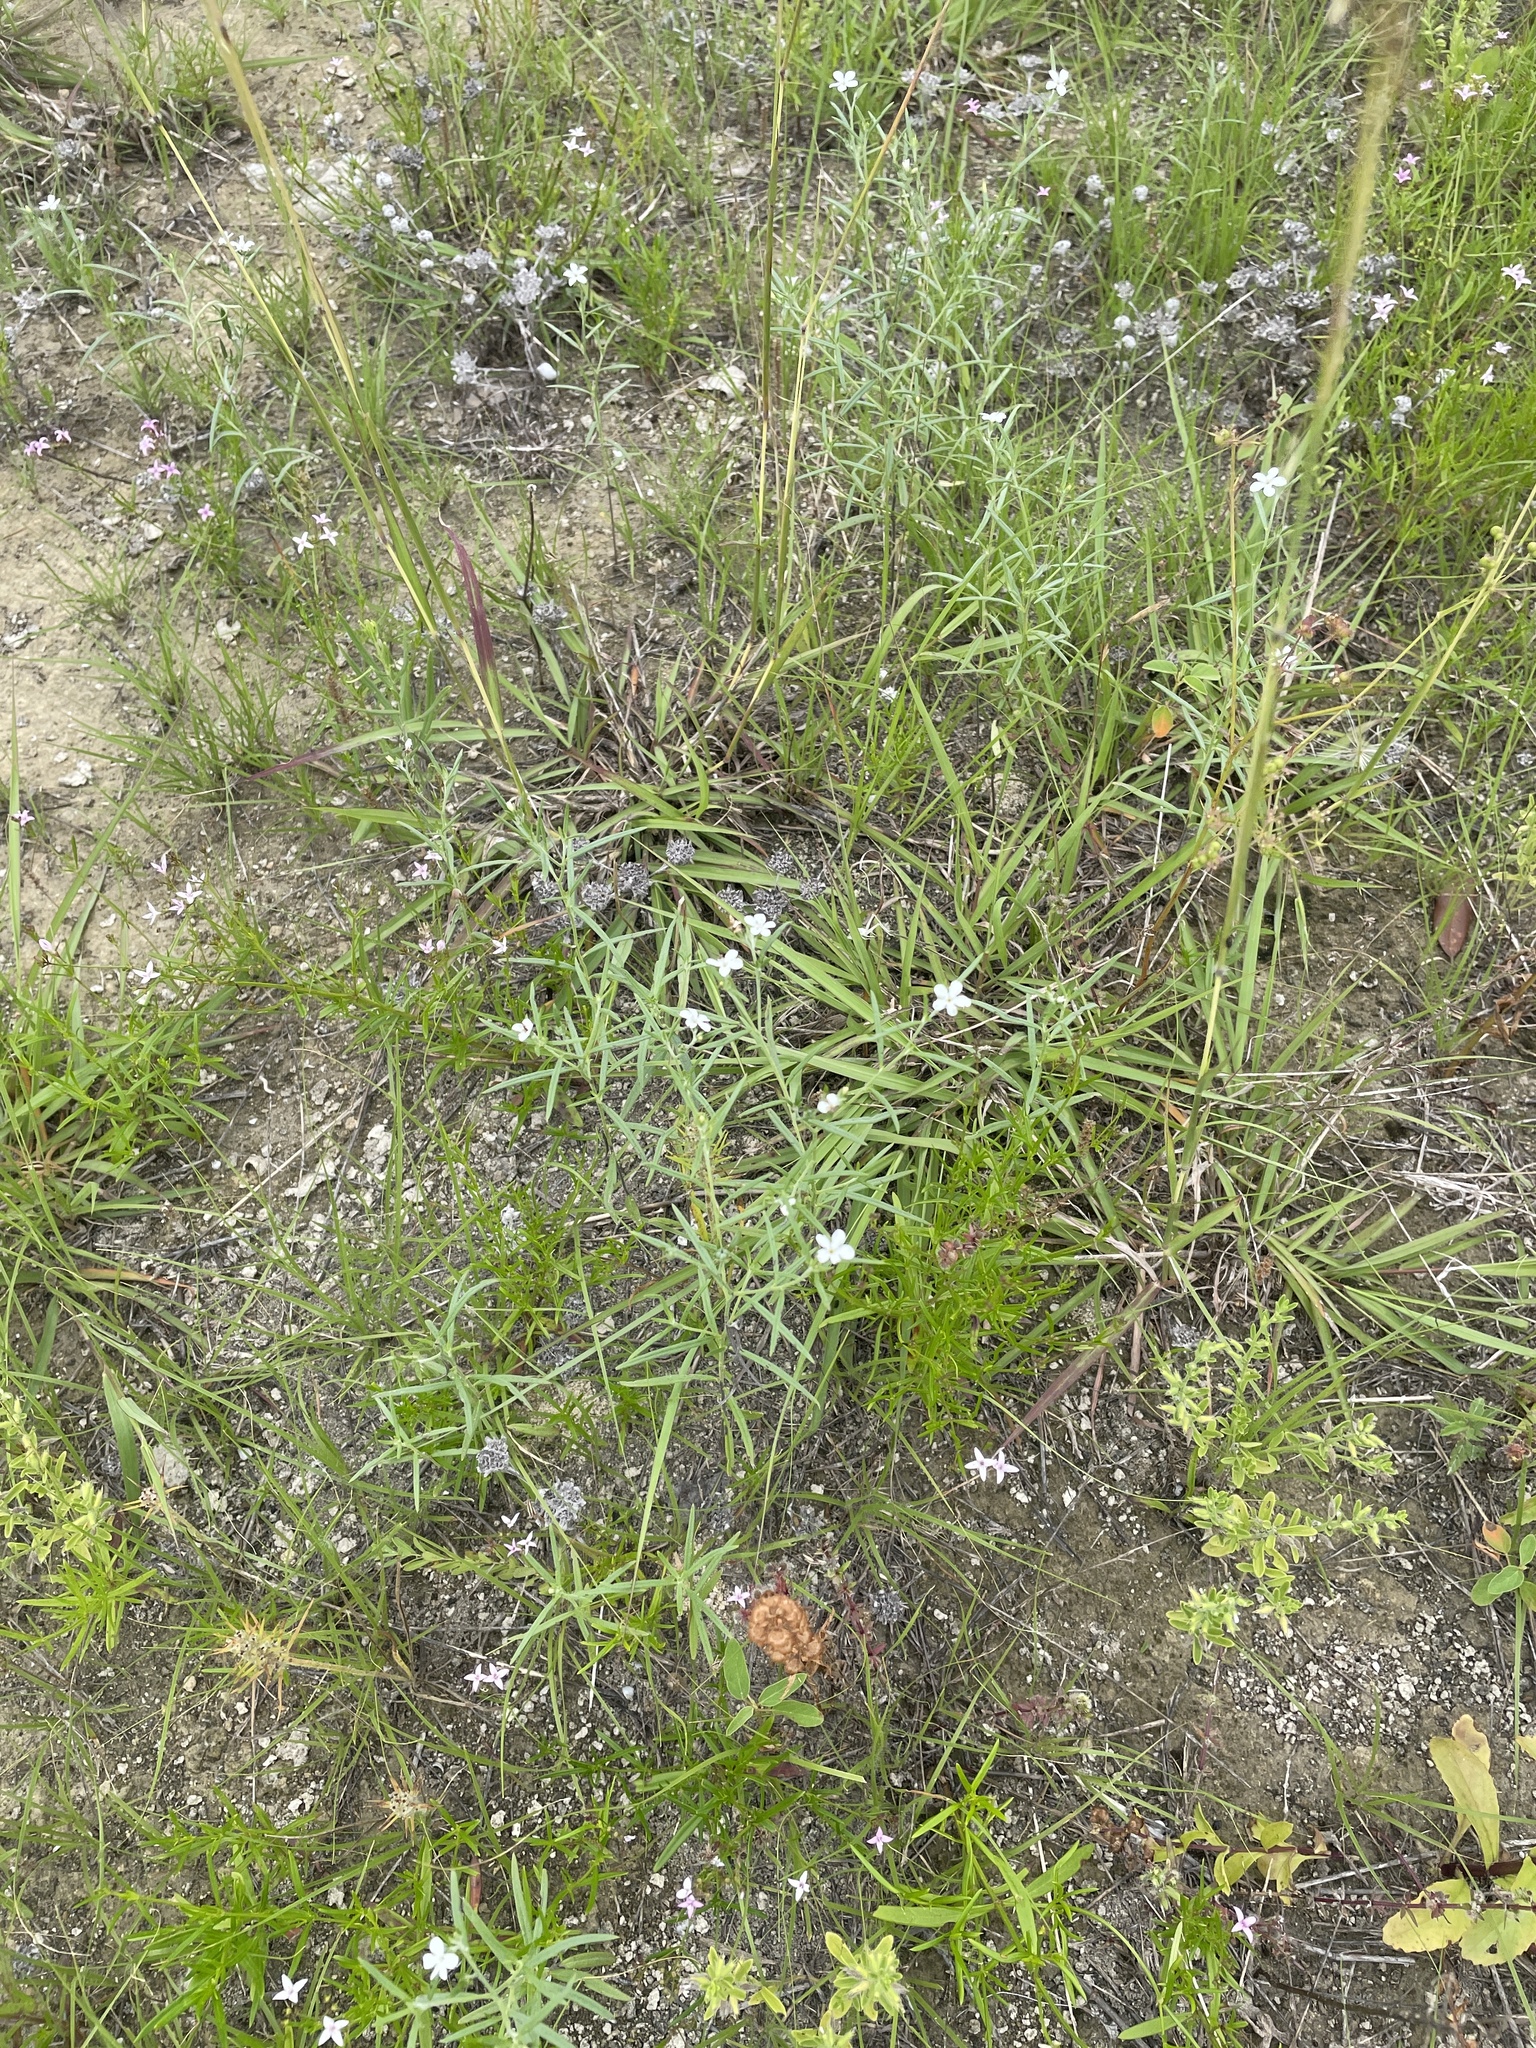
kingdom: Plantae
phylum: Tracheophyta
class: Magnoliopsida
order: Boraginales
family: Heliotropiaceae
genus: Euploca
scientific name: Euploca tenella
